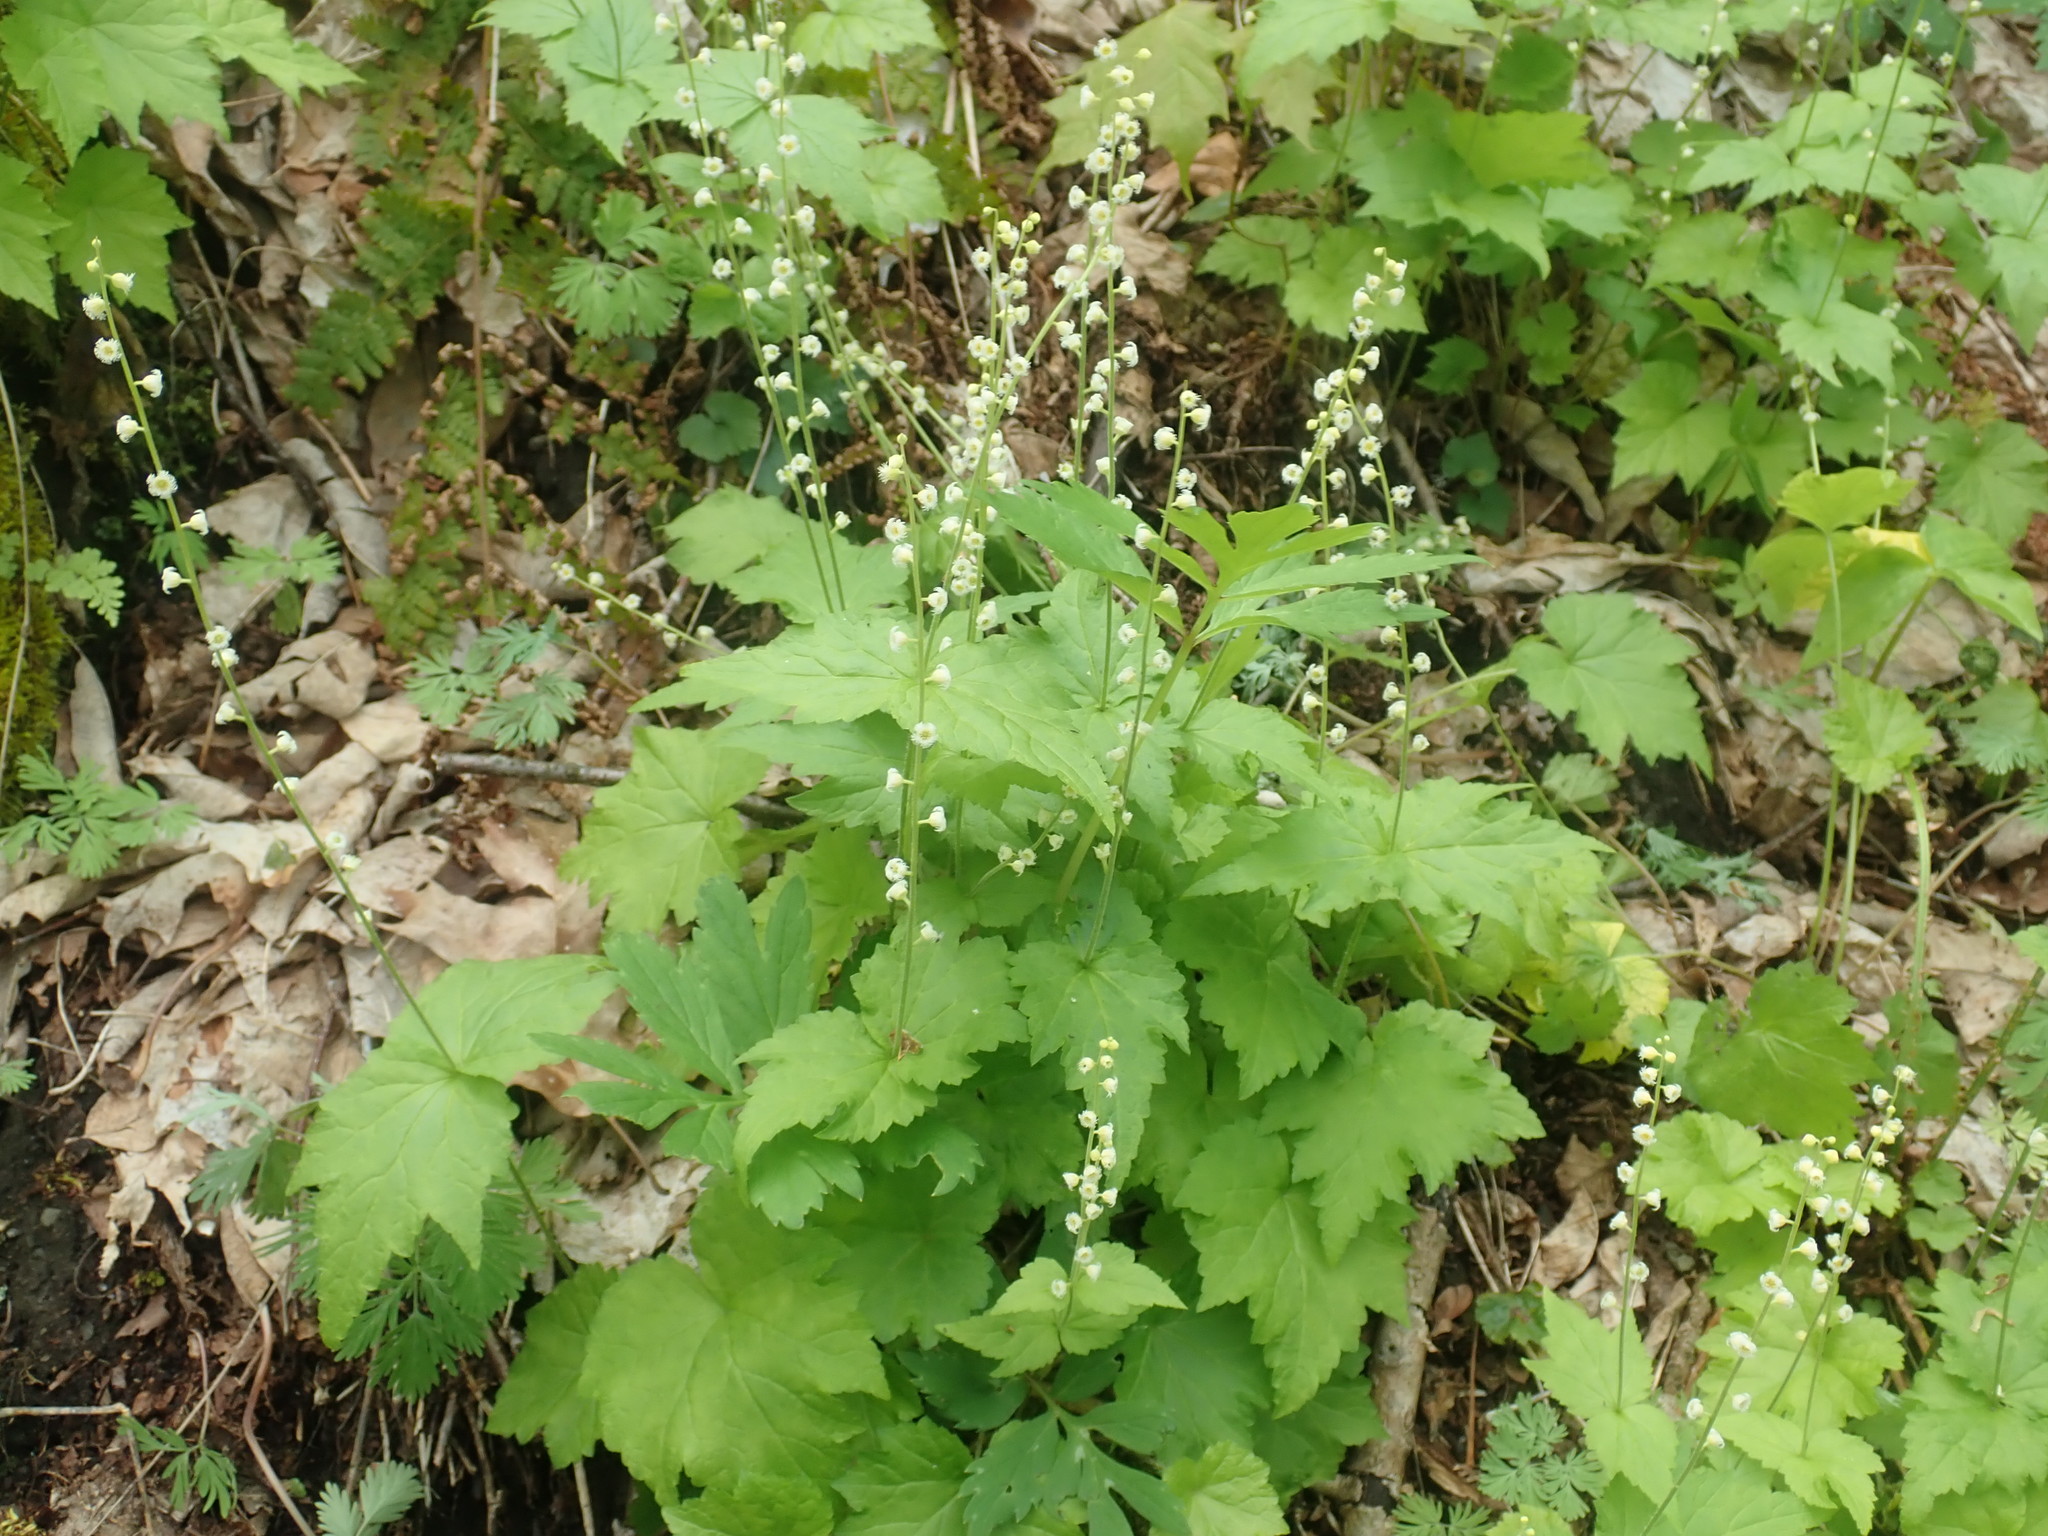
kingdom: Plantae
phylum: Tracheophyta
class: Magnoliopsida
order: Saxifragales
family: Saxifragaceae
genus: Mitella
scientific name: Mitella diphylla
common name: Coolwort
